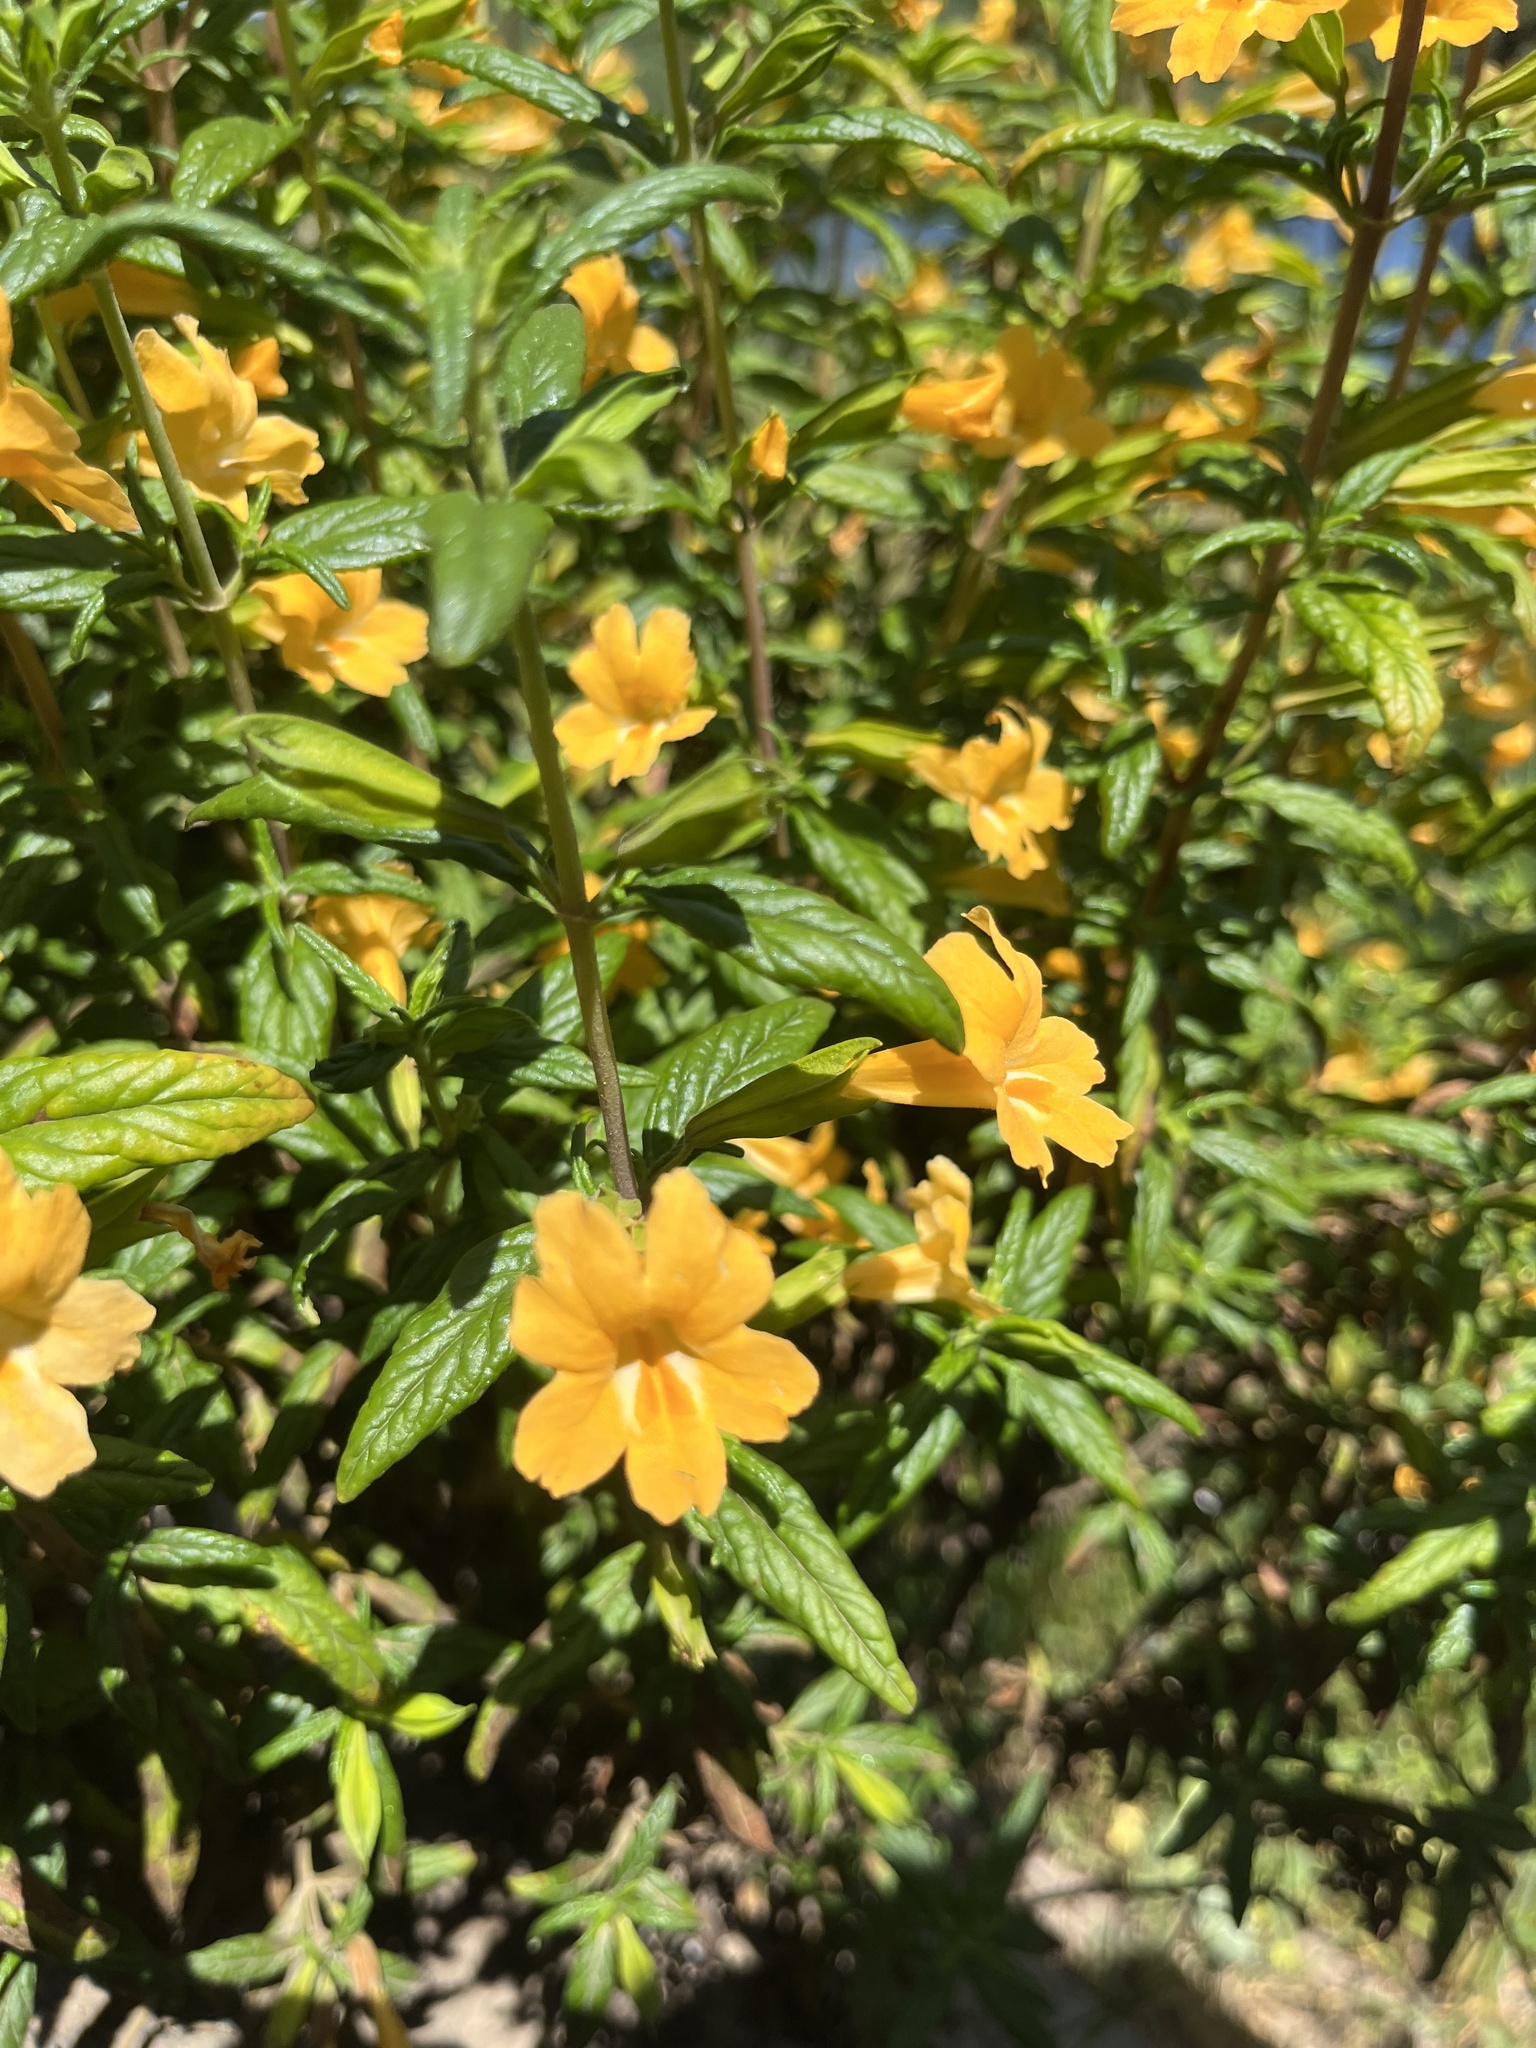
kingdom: Plantae
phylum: Tracheophyta
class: Magnoliopsida
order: Lamiales
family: Phrymaceae
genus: Diplacus
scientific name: Diplacus aurantiacus
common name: Bush monkey-flower
